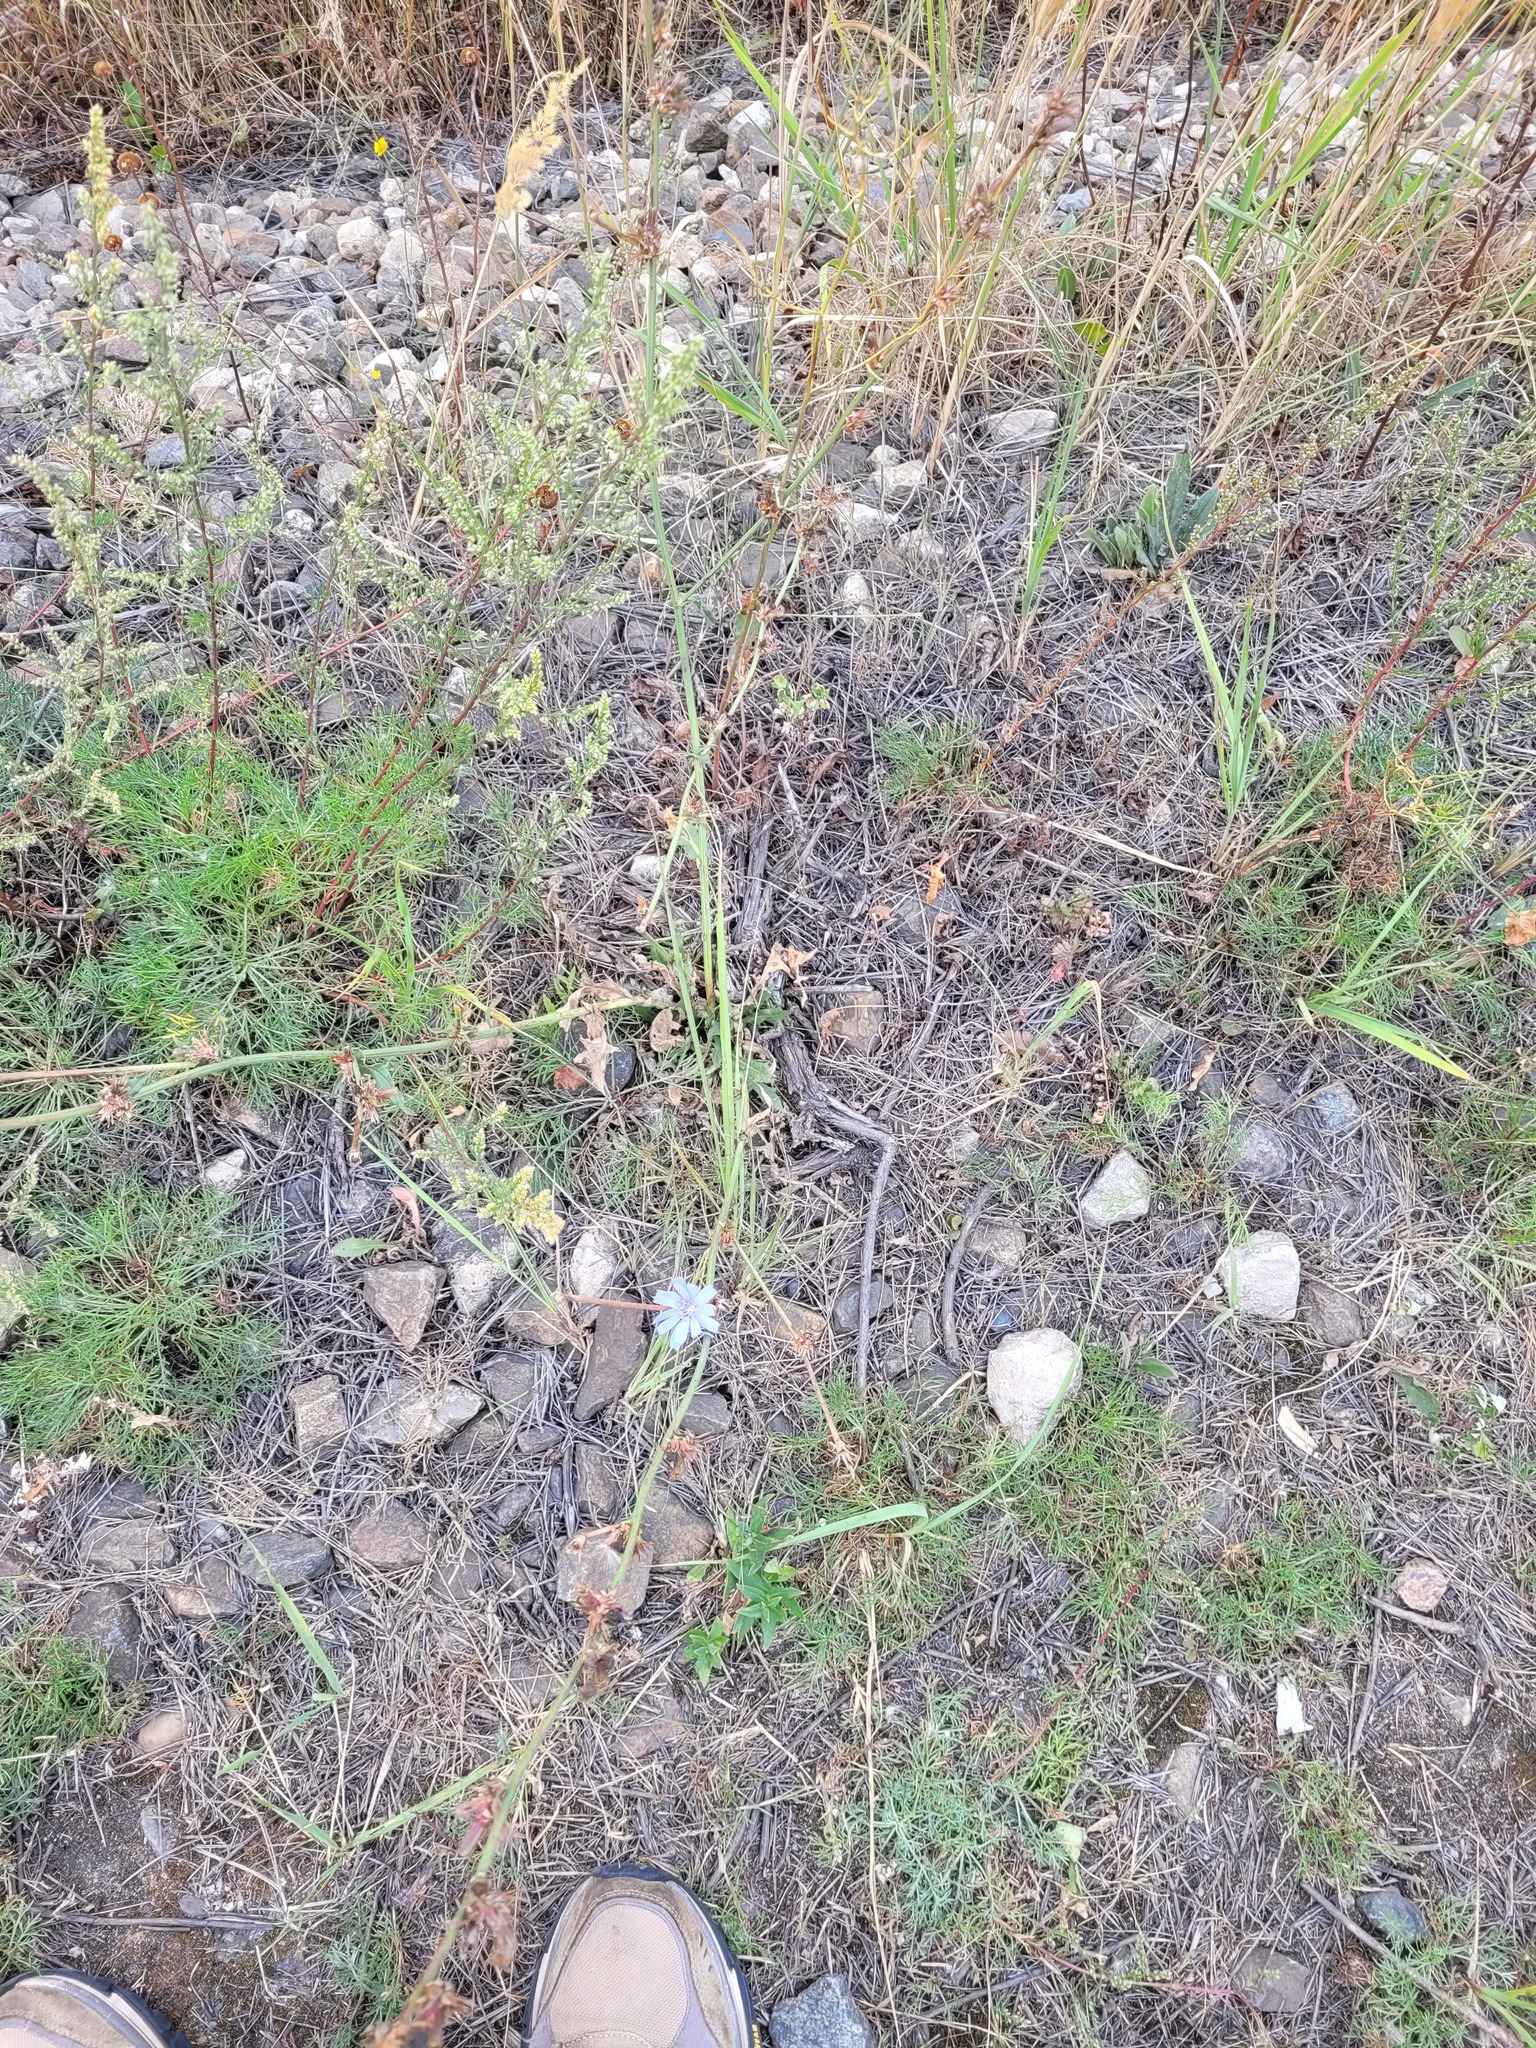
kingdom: Plantae
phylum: Tracheophyta
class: Magnoliopsida
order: Asterales
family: Asteraceae
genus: Cichorium
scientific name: Cichorium intybus
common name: Chicory
